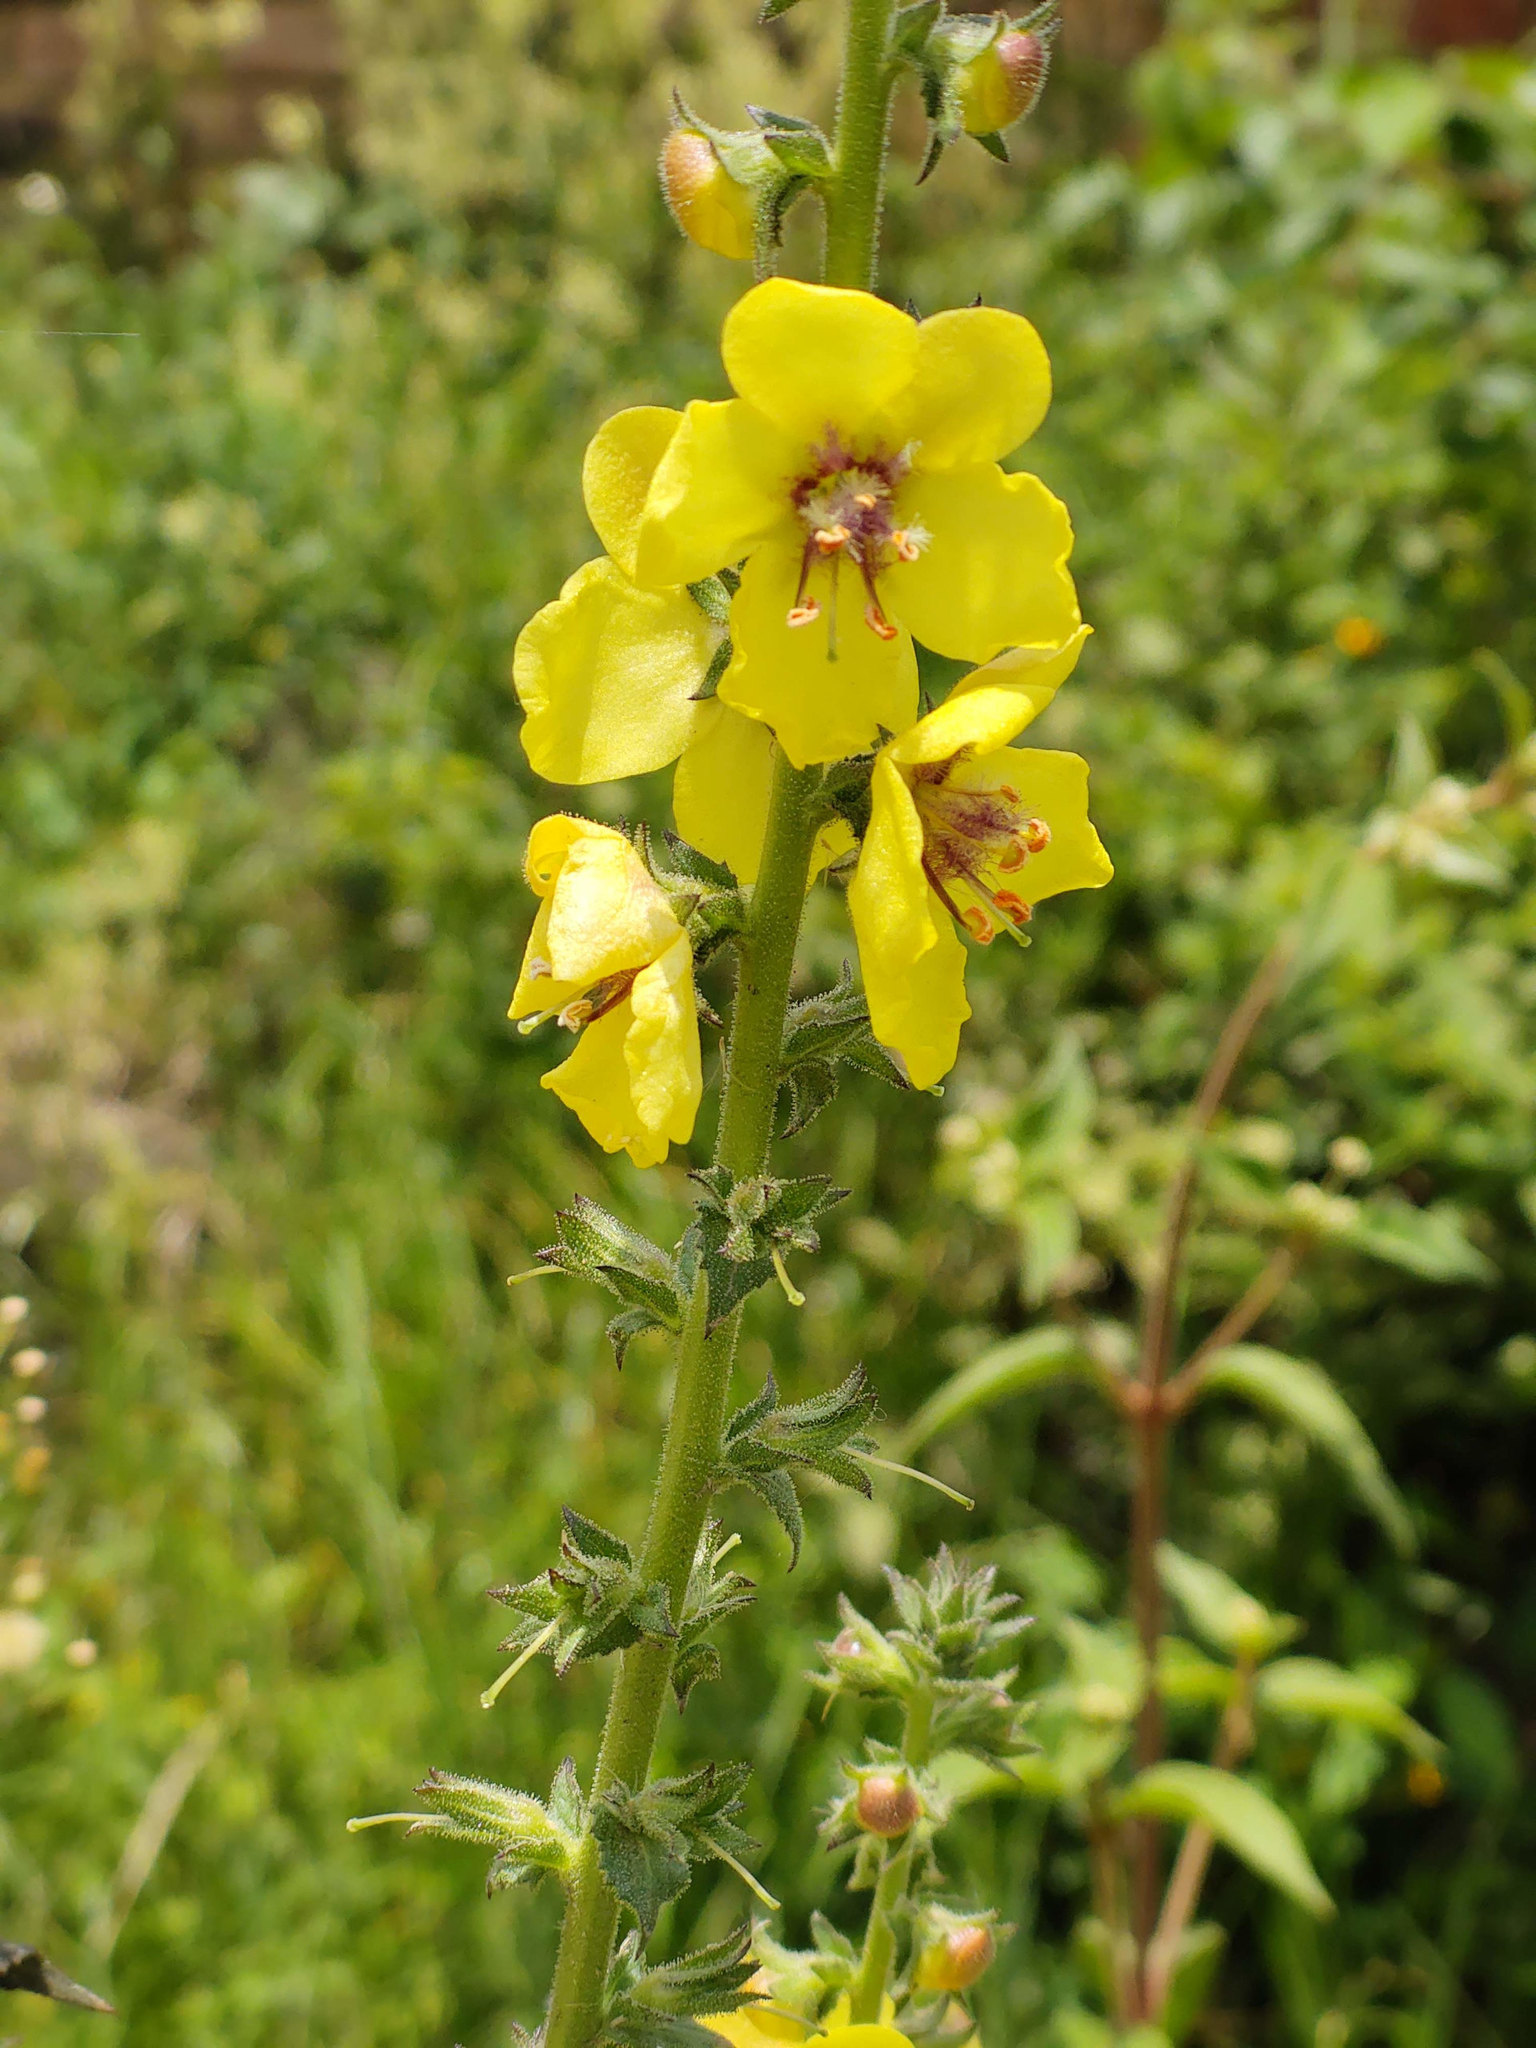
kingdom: Plantae
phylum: Tracheophyta
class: Magnoliopsida
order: Lamiales
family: Scrophulariaceae
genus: Verbascum
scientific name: Verbascum virgatum
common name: Twiggy mullein
